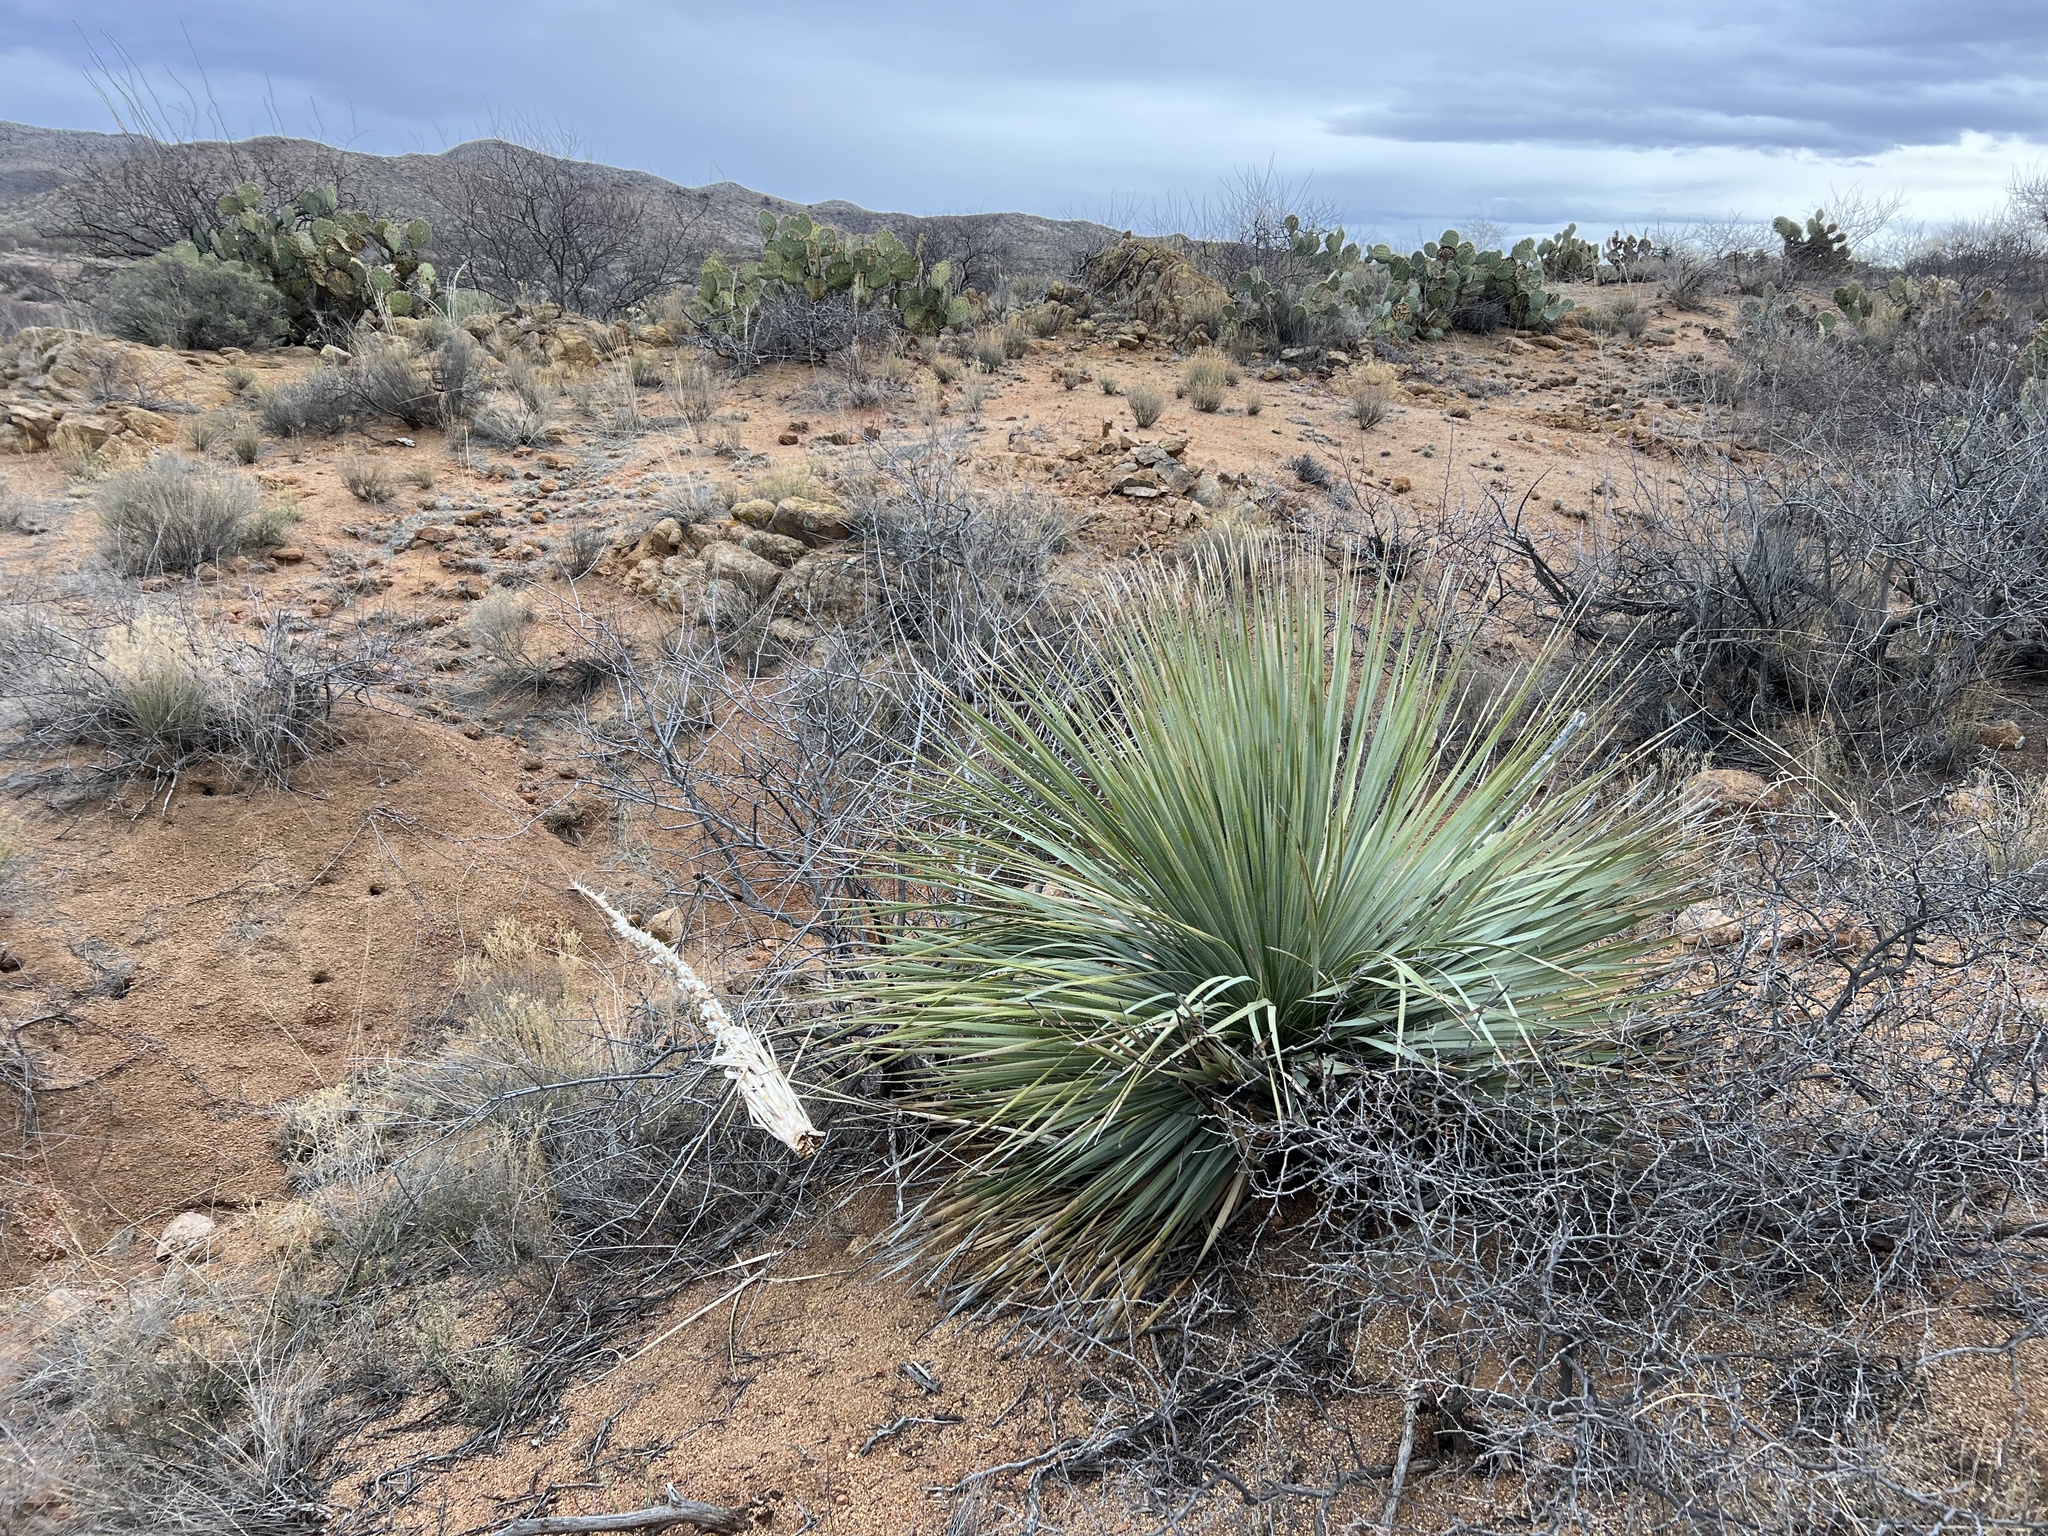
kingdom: Plantae
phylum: Tracheophyta
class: Liliopsida
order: Asparagales
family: Asparagaceae
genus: Dasylirion
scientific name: Dasylirion wheeleri
